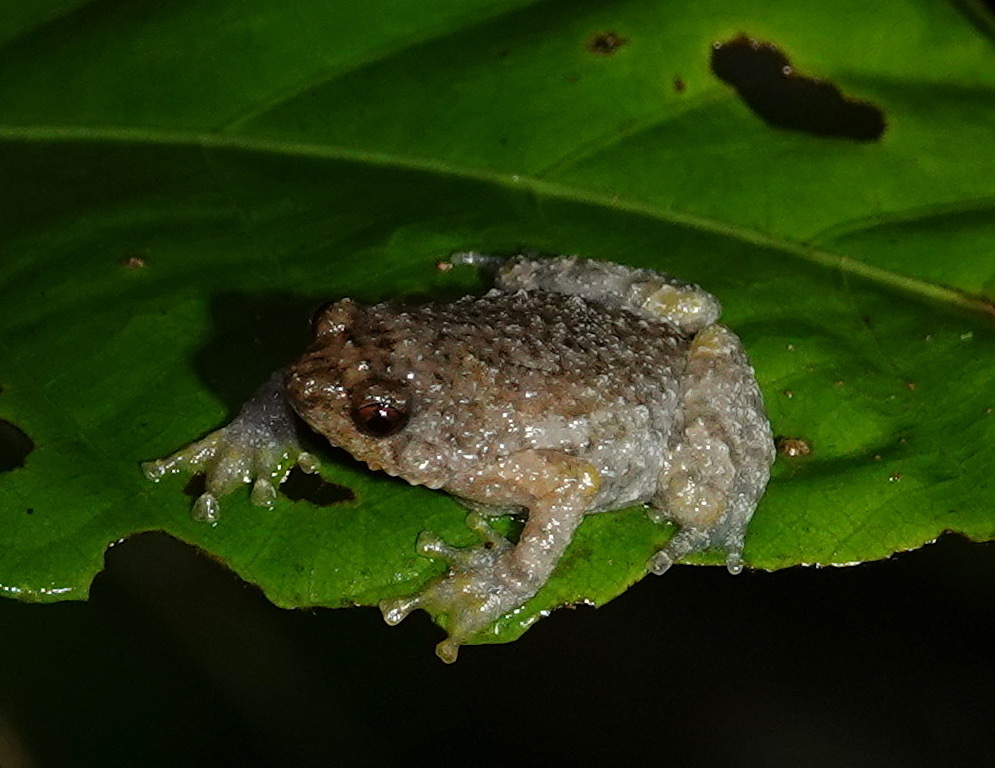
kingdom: Animalia
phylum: Chordata
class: Amphibia
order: Anura
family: Microhylidae
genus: Metaphrynella
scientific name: Metaphrynella sundana
